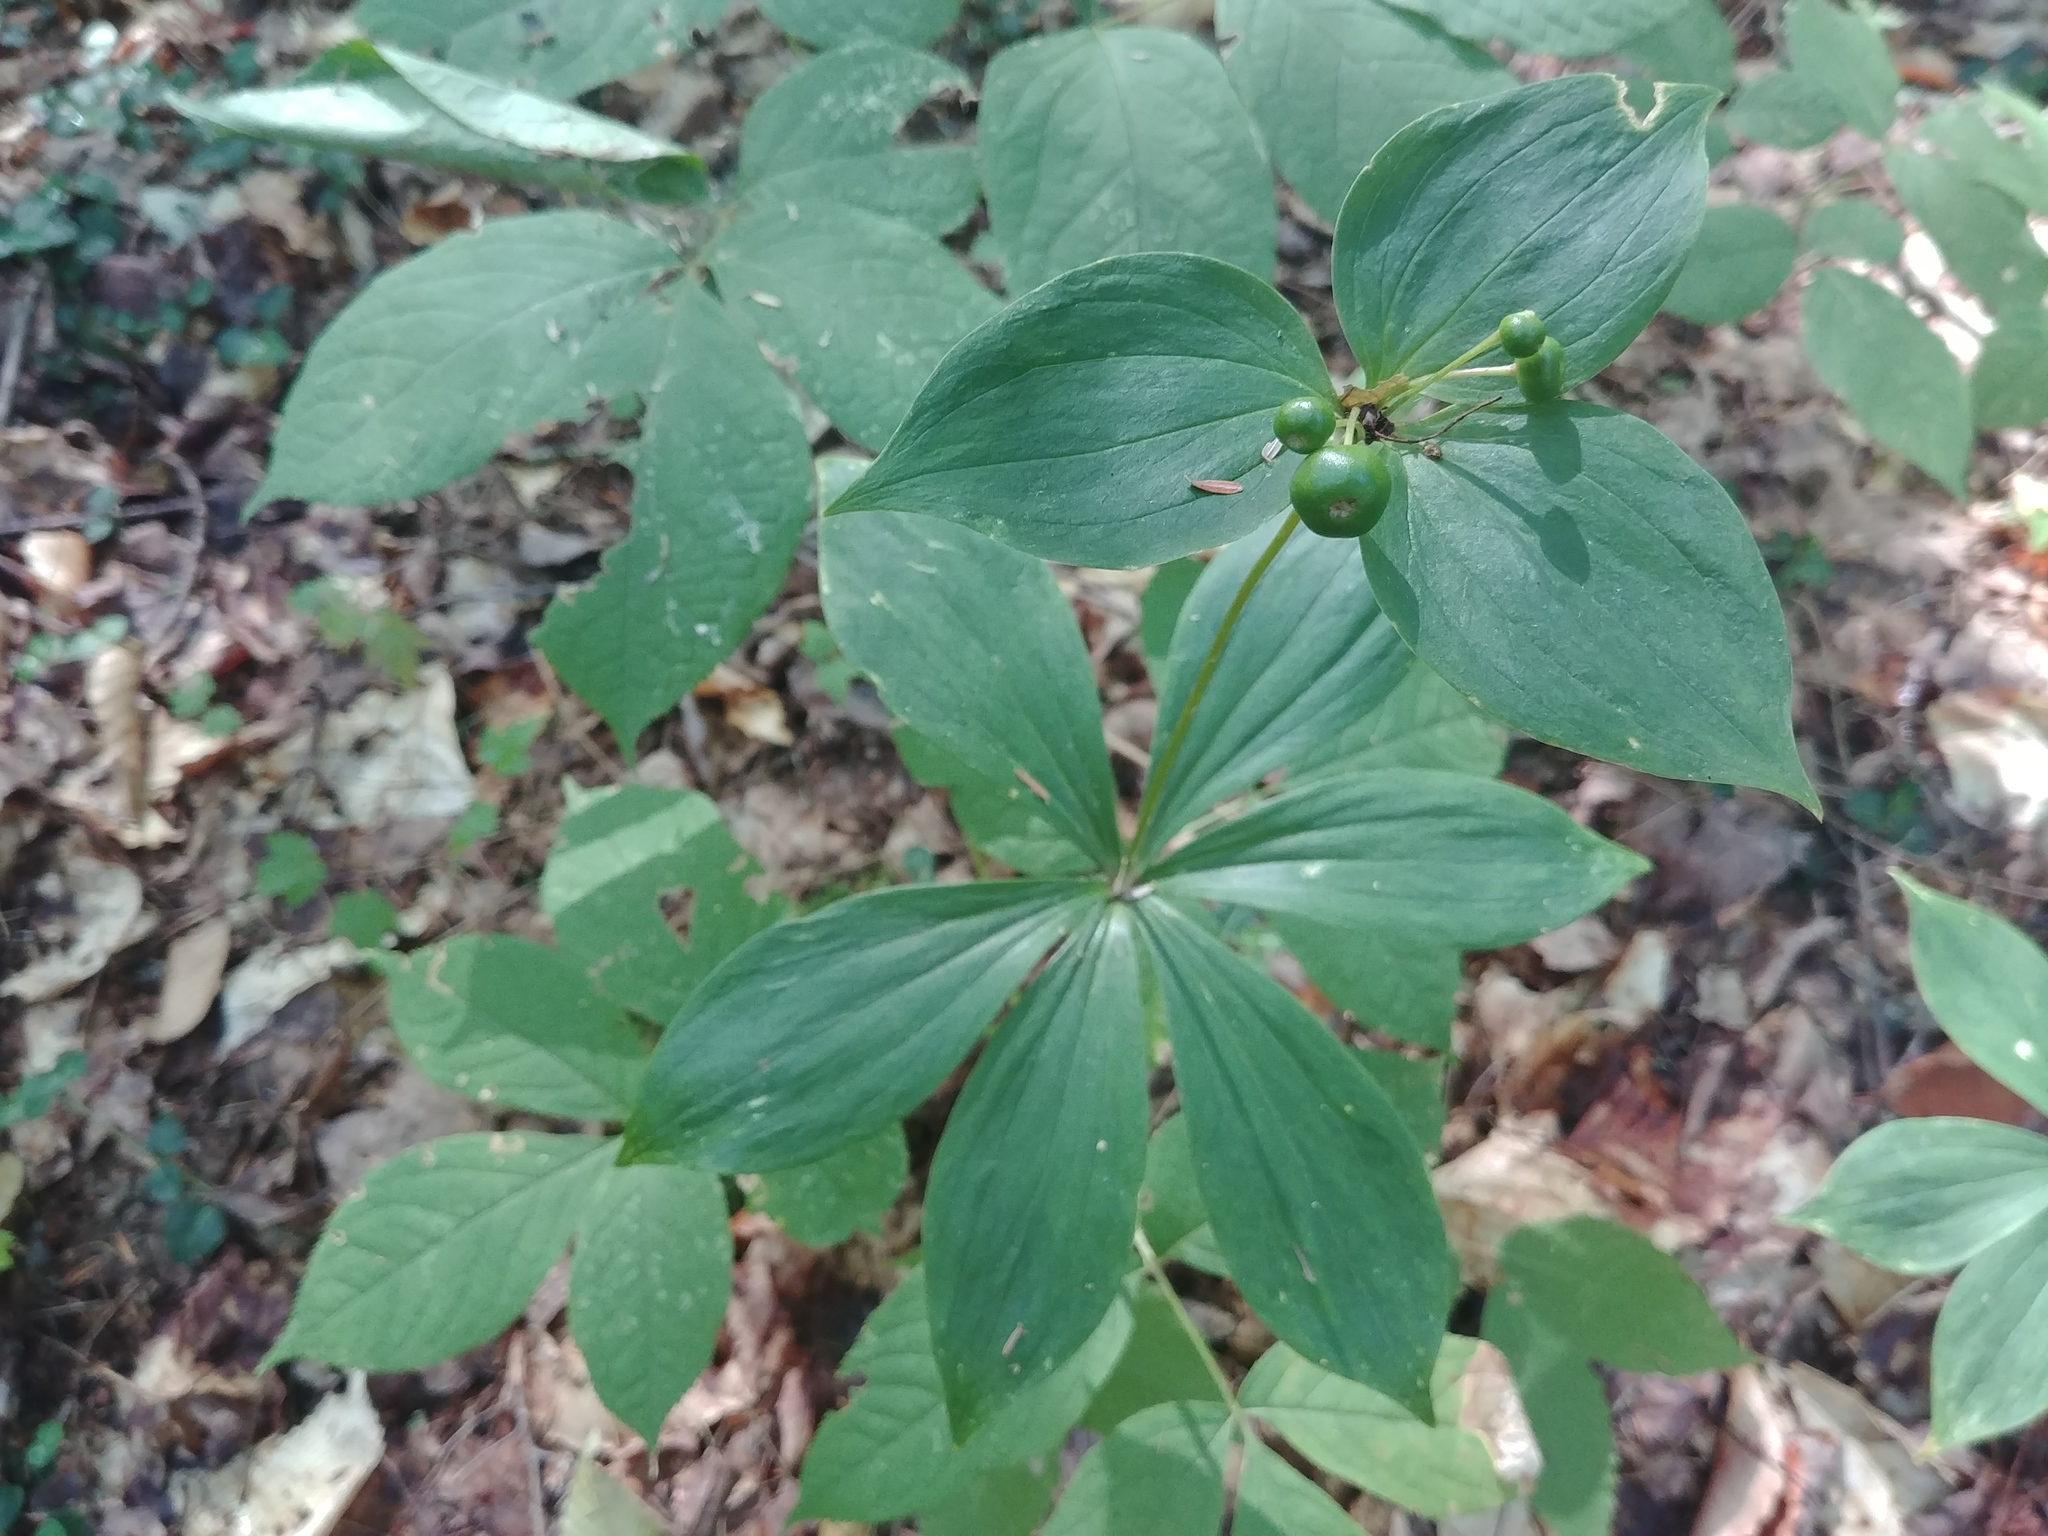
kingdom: Plantae
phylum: Tracheophyta
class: Liliopsida
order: Liliales
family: Liliaceae
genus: Medeola
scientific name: Medeola virginiana
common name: Indian cucumber-root
